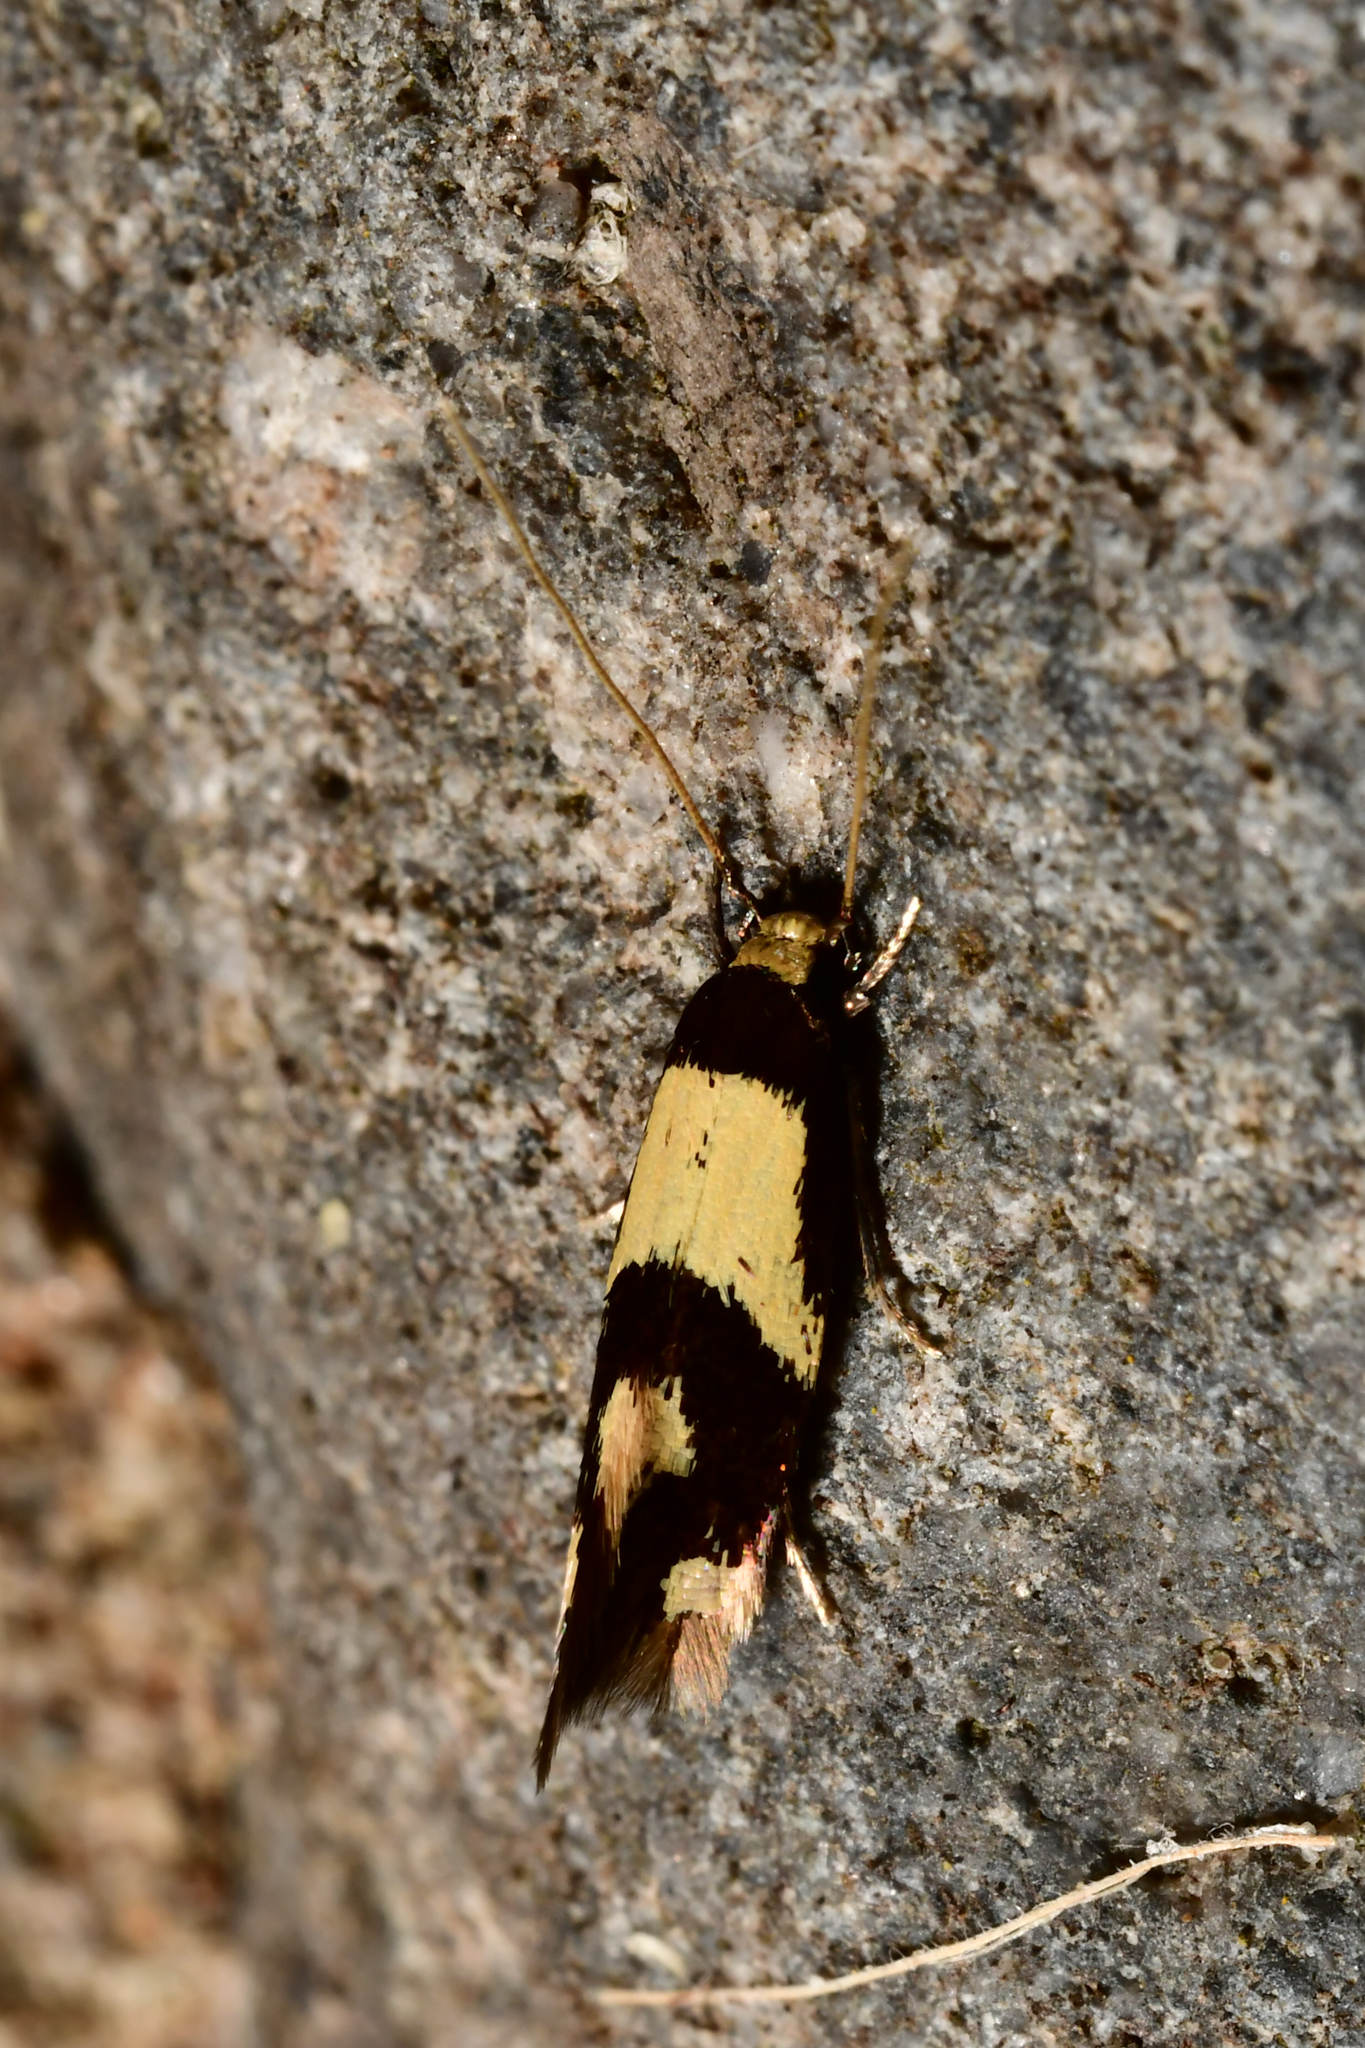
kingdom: Animalia
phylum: Arthropoda
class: Insecta
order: Lepidoptera
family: Tineidae
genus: Opogona
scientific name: Opogona comptella
